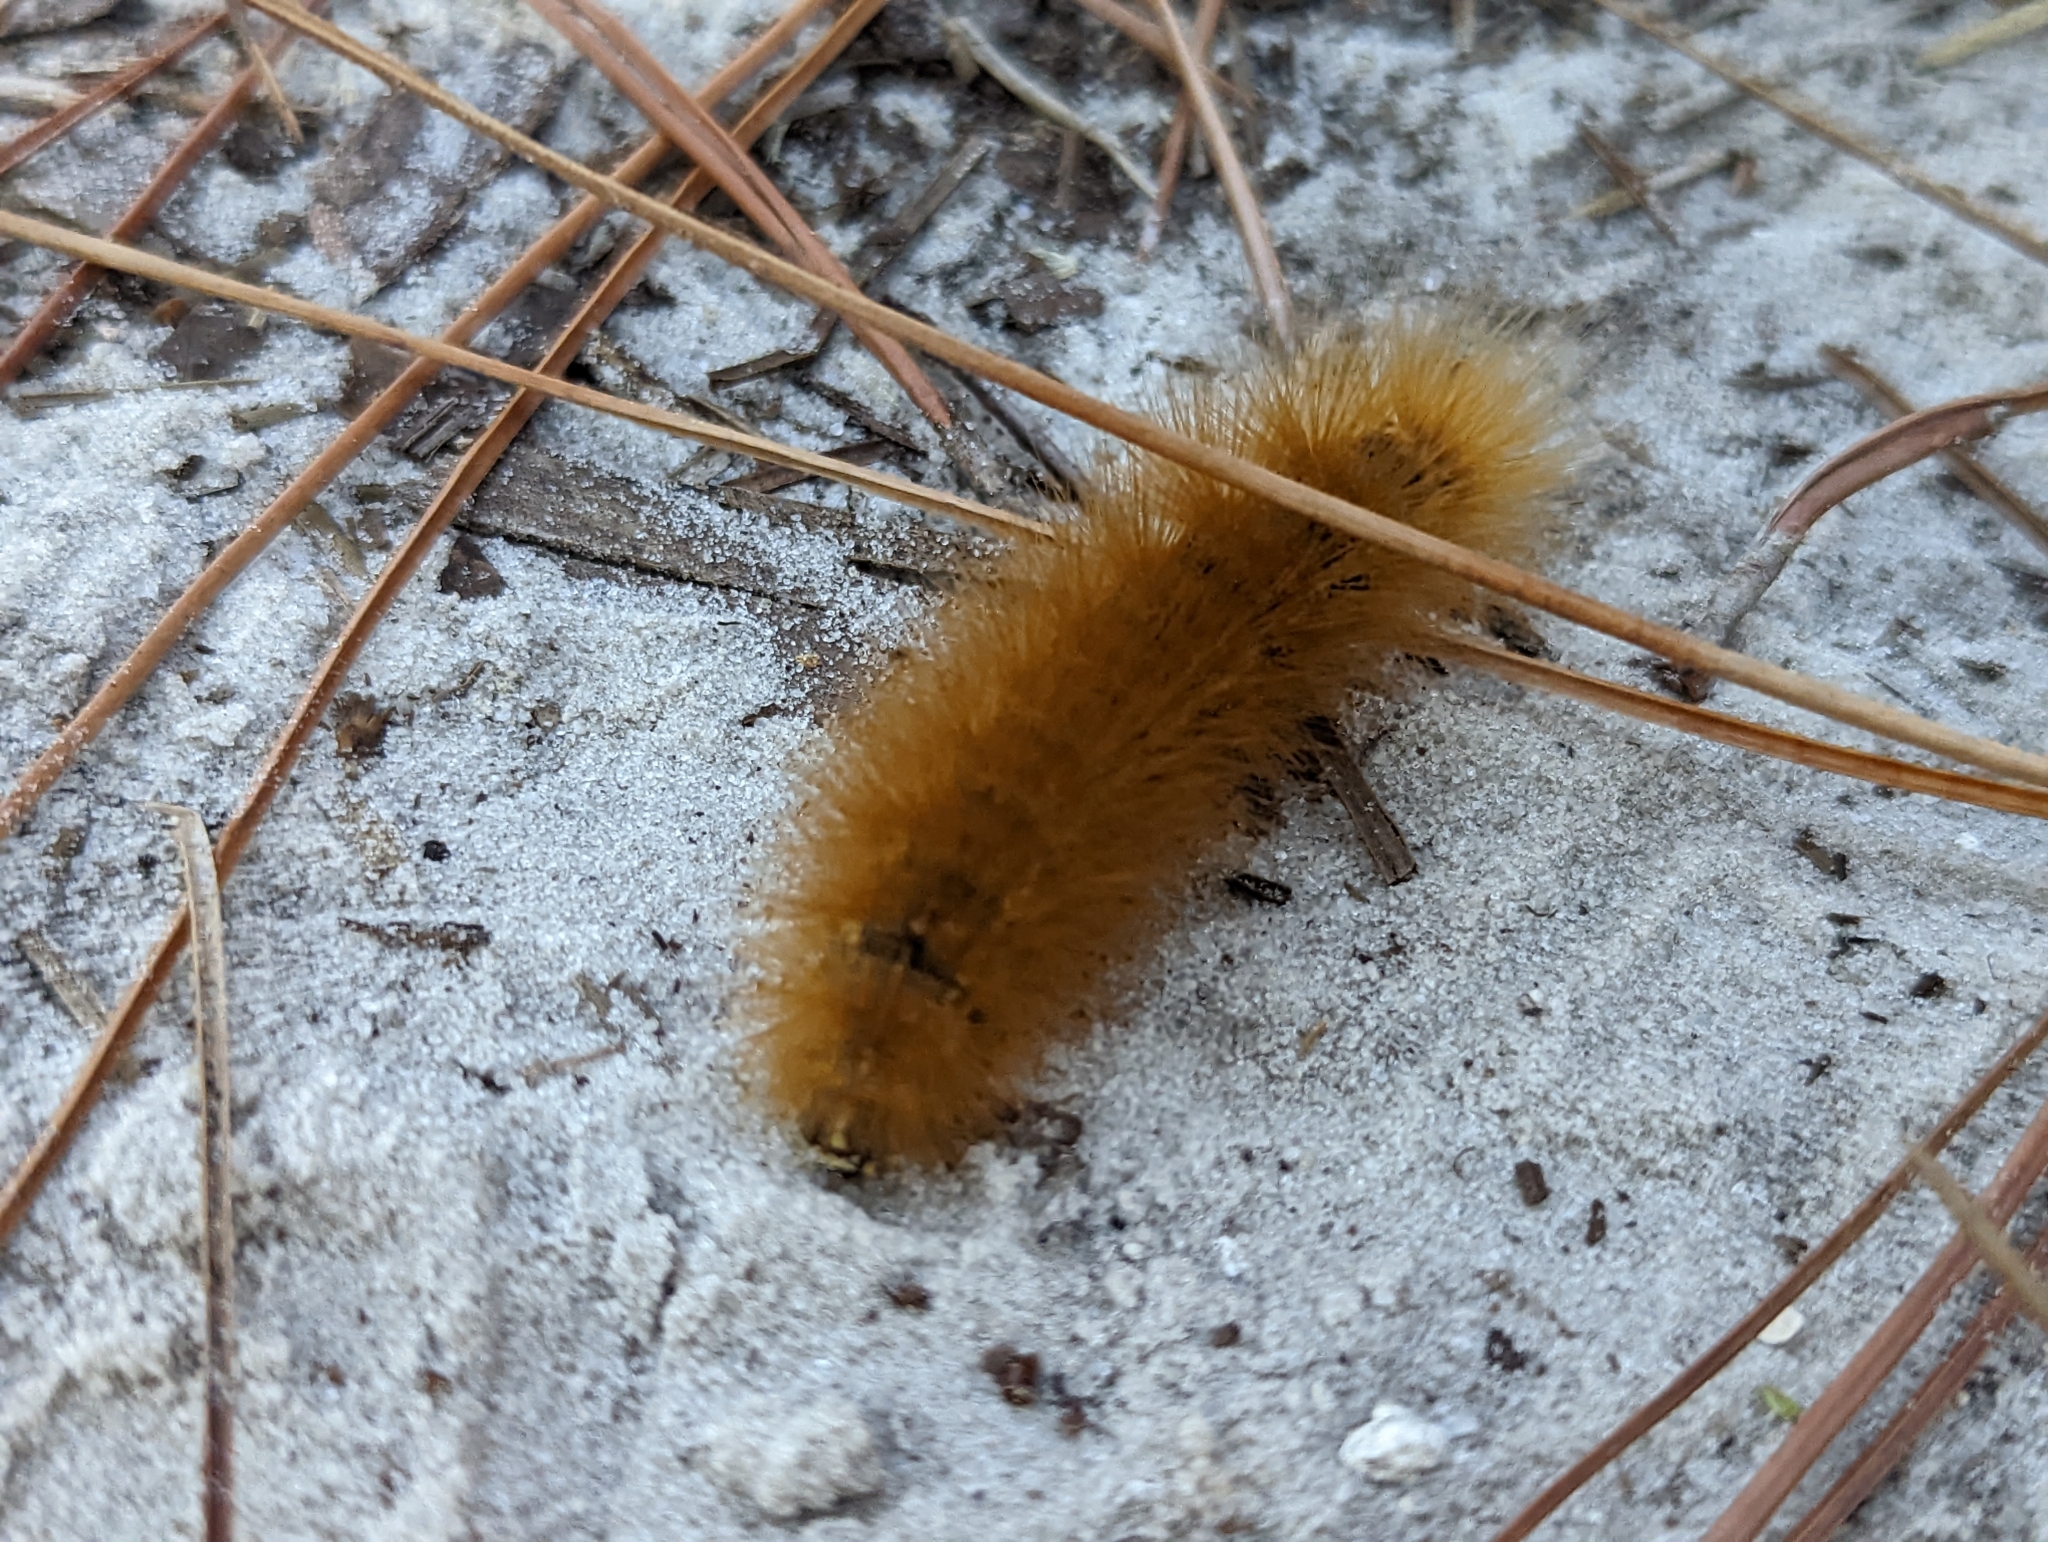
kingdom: Animalia
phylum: Arthropoda
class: Insecta
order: Lepidoptera
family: Erebidae
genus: Estigmene
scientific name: Estigmene acrea
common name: Salt marsh moth
